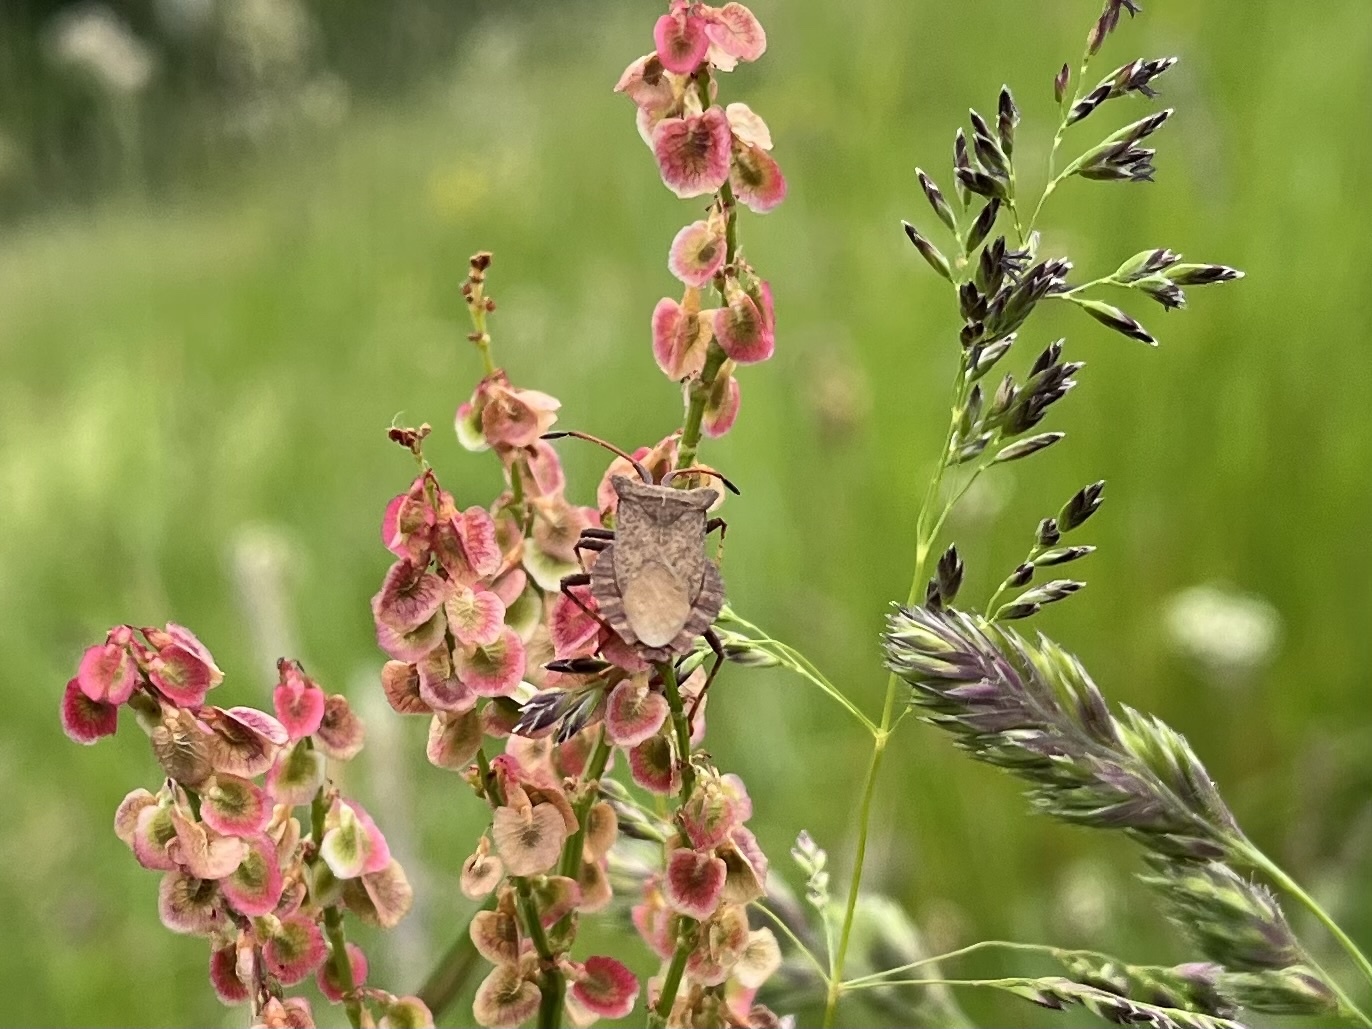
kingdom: Animalia
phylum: Arthropoda
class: Insecta
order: Hemiptera
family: Coreidae
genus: Coreus
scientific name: Coreus marginatus
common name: Dock bug
